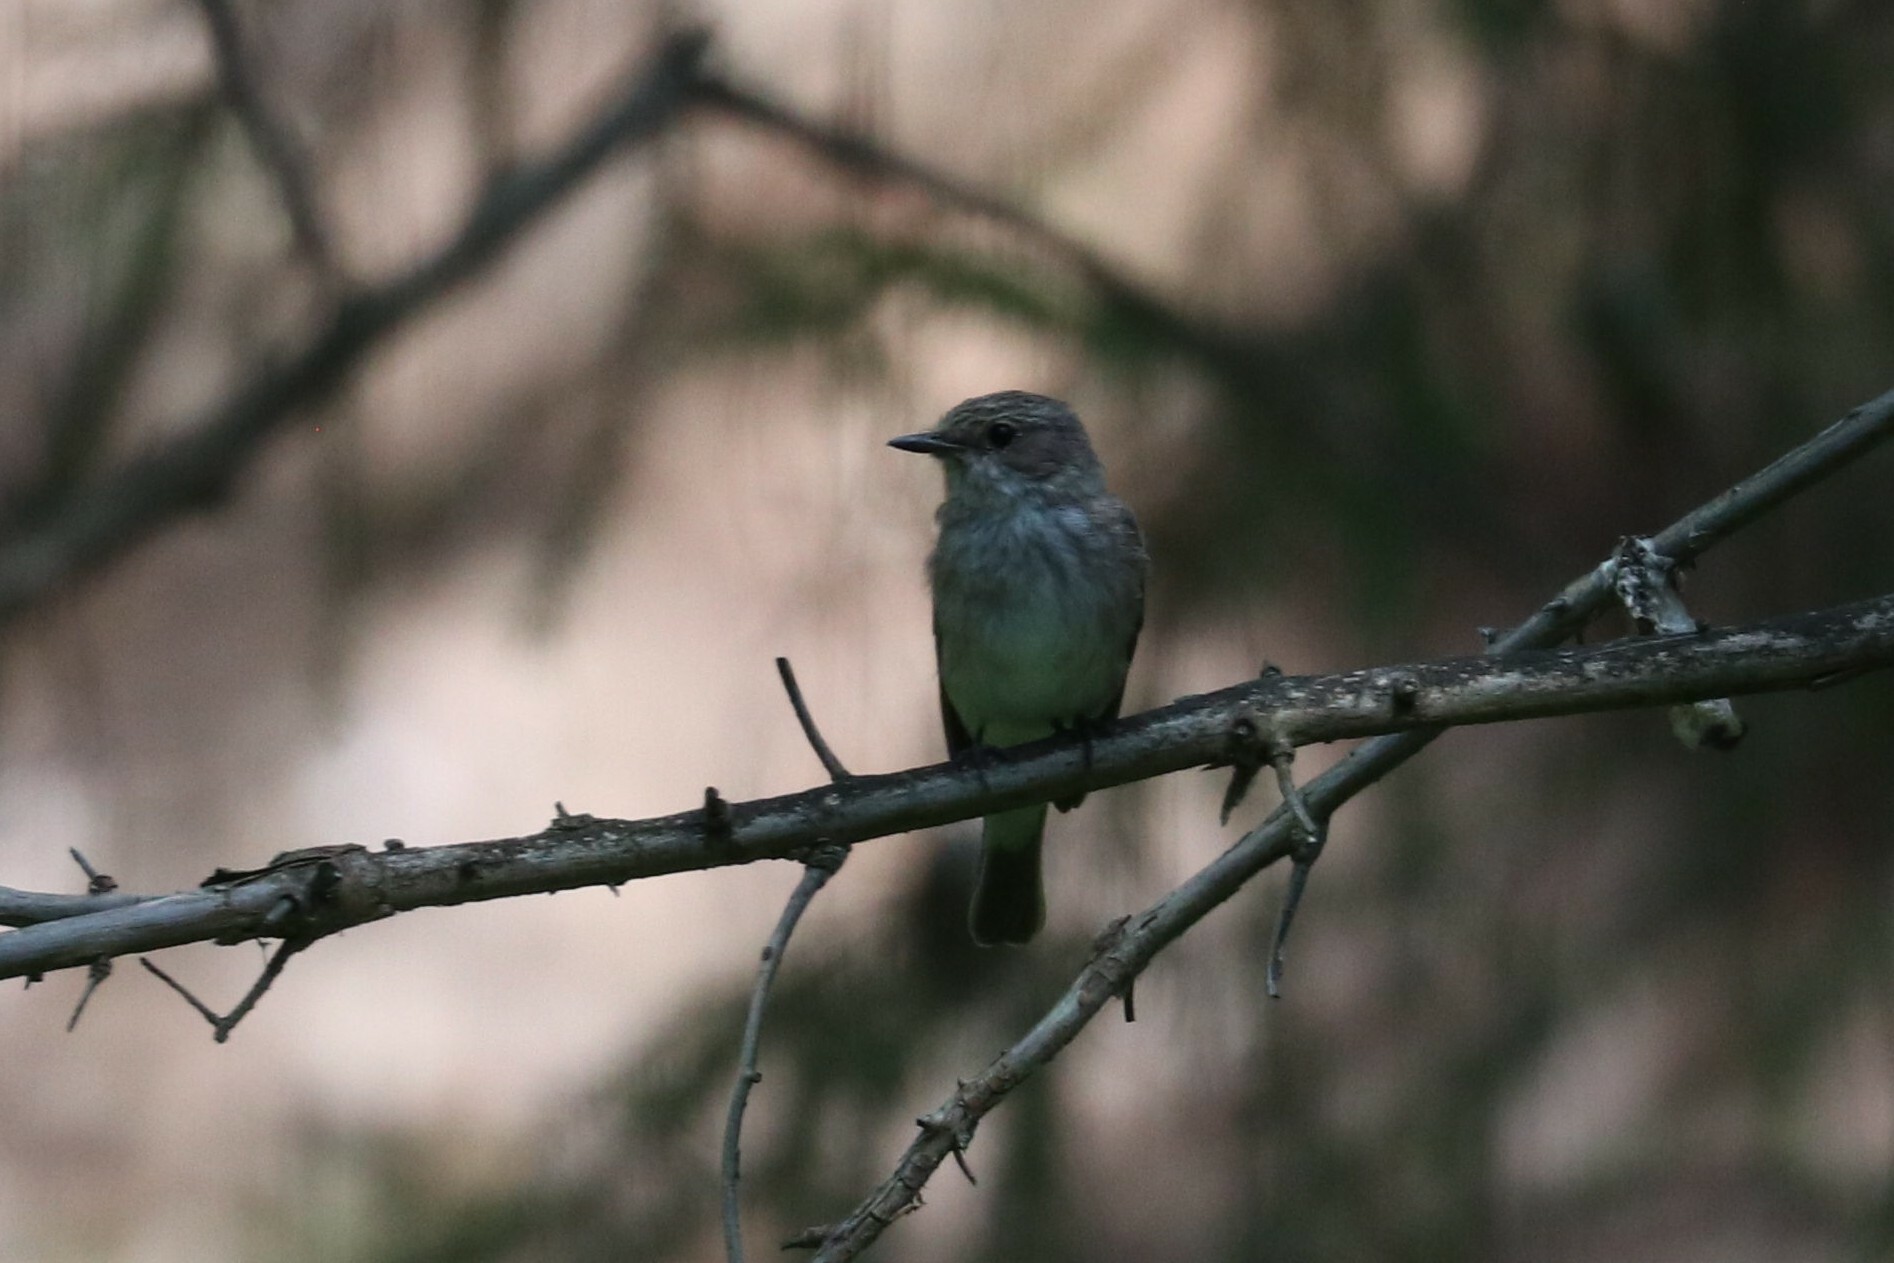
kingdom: Animalia
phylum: Chordata
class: Aves
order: Passeriformes
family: Muscicapidae
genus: Muscicapa
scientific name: Muscicapa striata
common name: Spotted flycatcher
